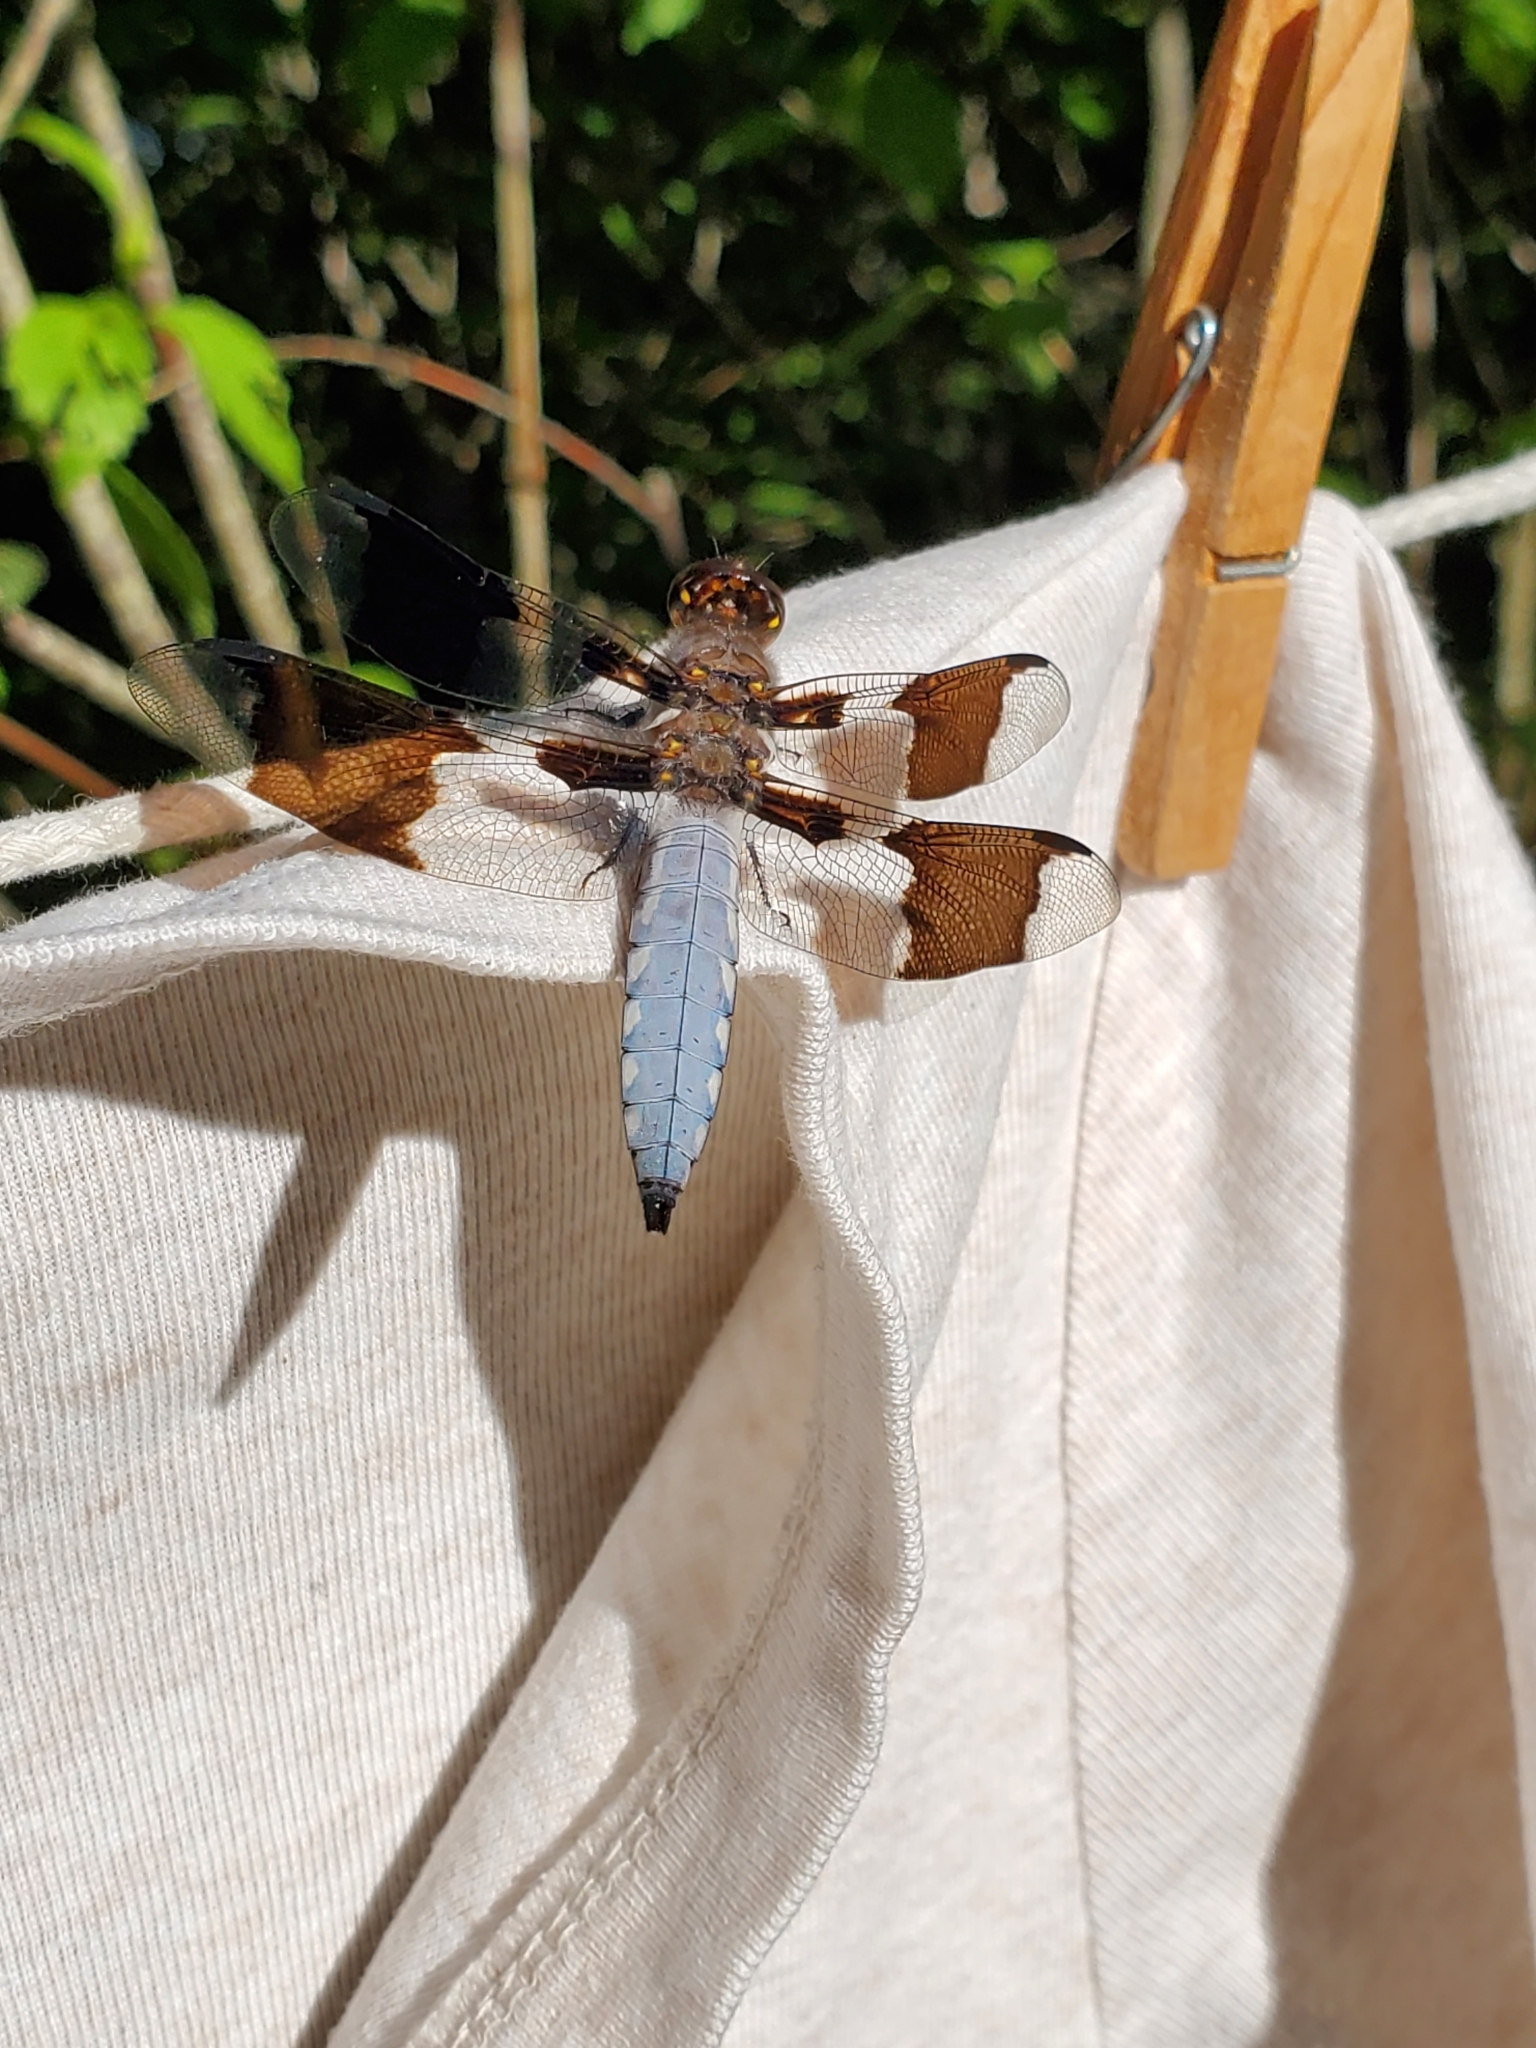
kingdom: Animalia
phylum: Arthropoda
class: Insecta
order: Odonata
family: Libellulidae
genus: Plathemis
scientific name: Plathemis lydia
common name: Common whitetail
